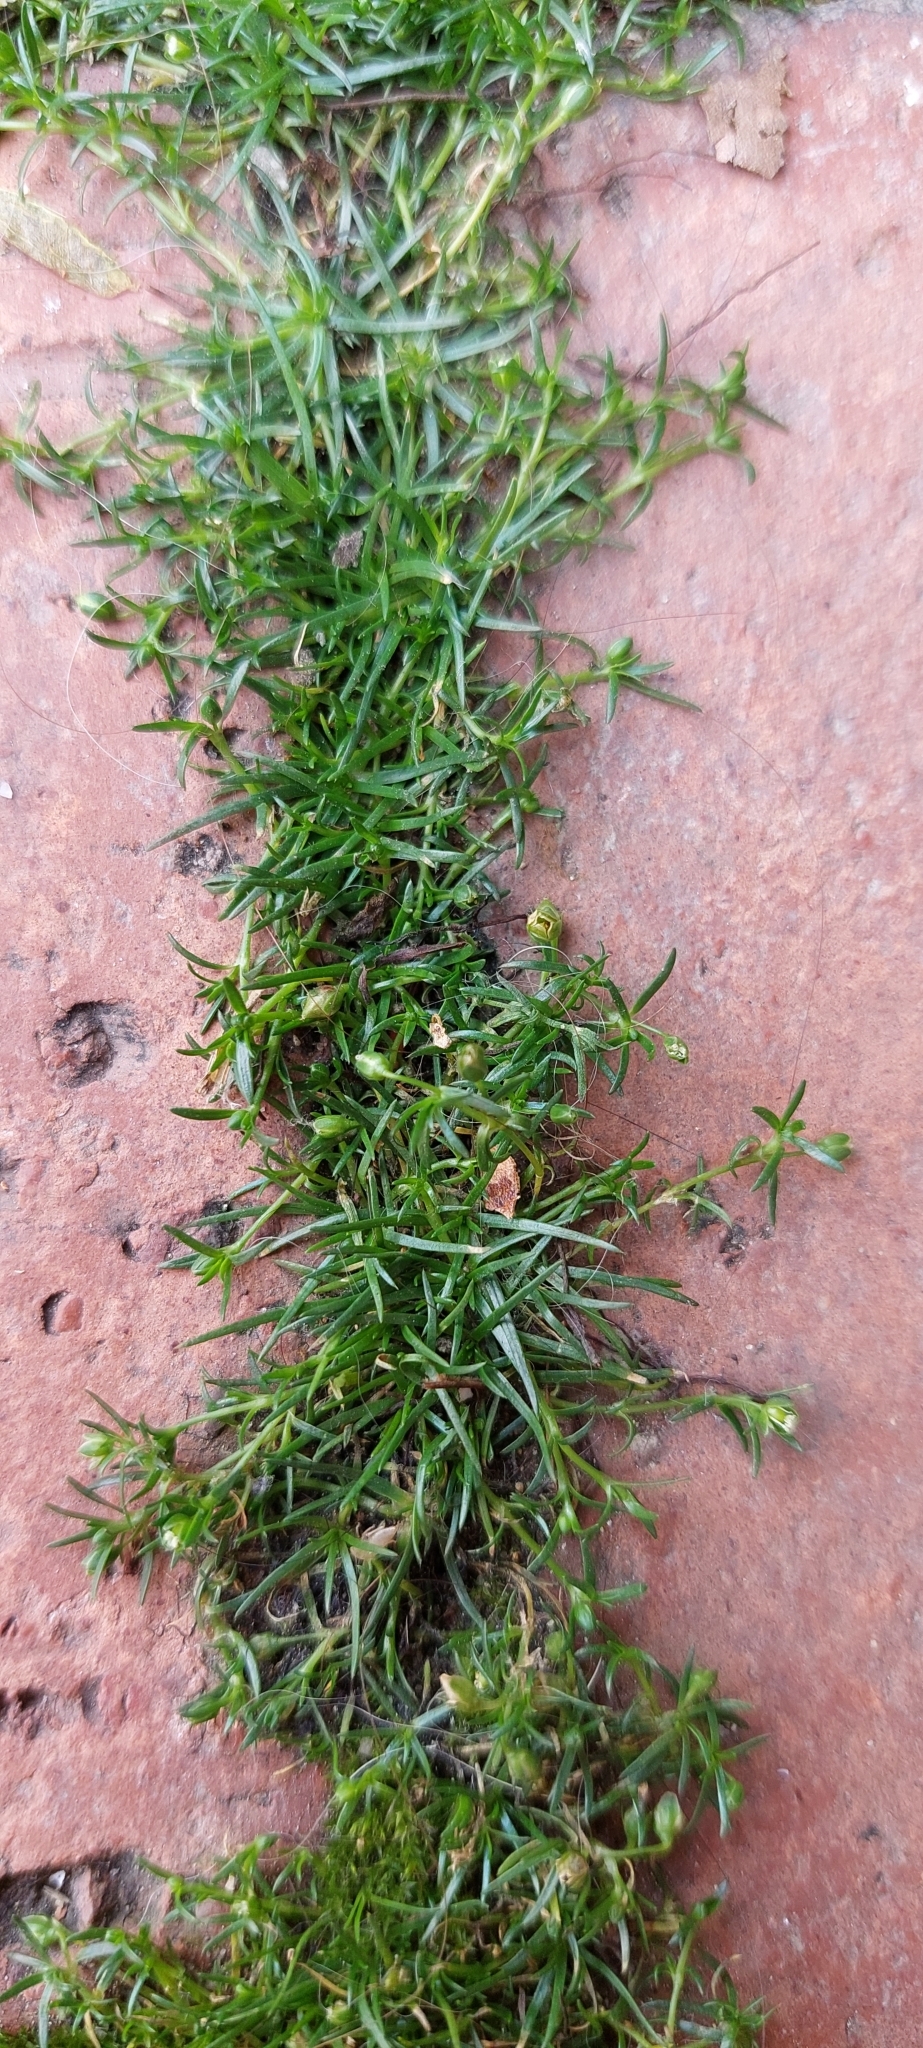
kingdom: Plantae
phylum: Tracheophyta
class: Magnoliopsida
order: Caryophyllales
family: Caryophyllaceae
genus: Sagina
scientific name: Sagina procumbens
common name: Procumbent pearlwort
